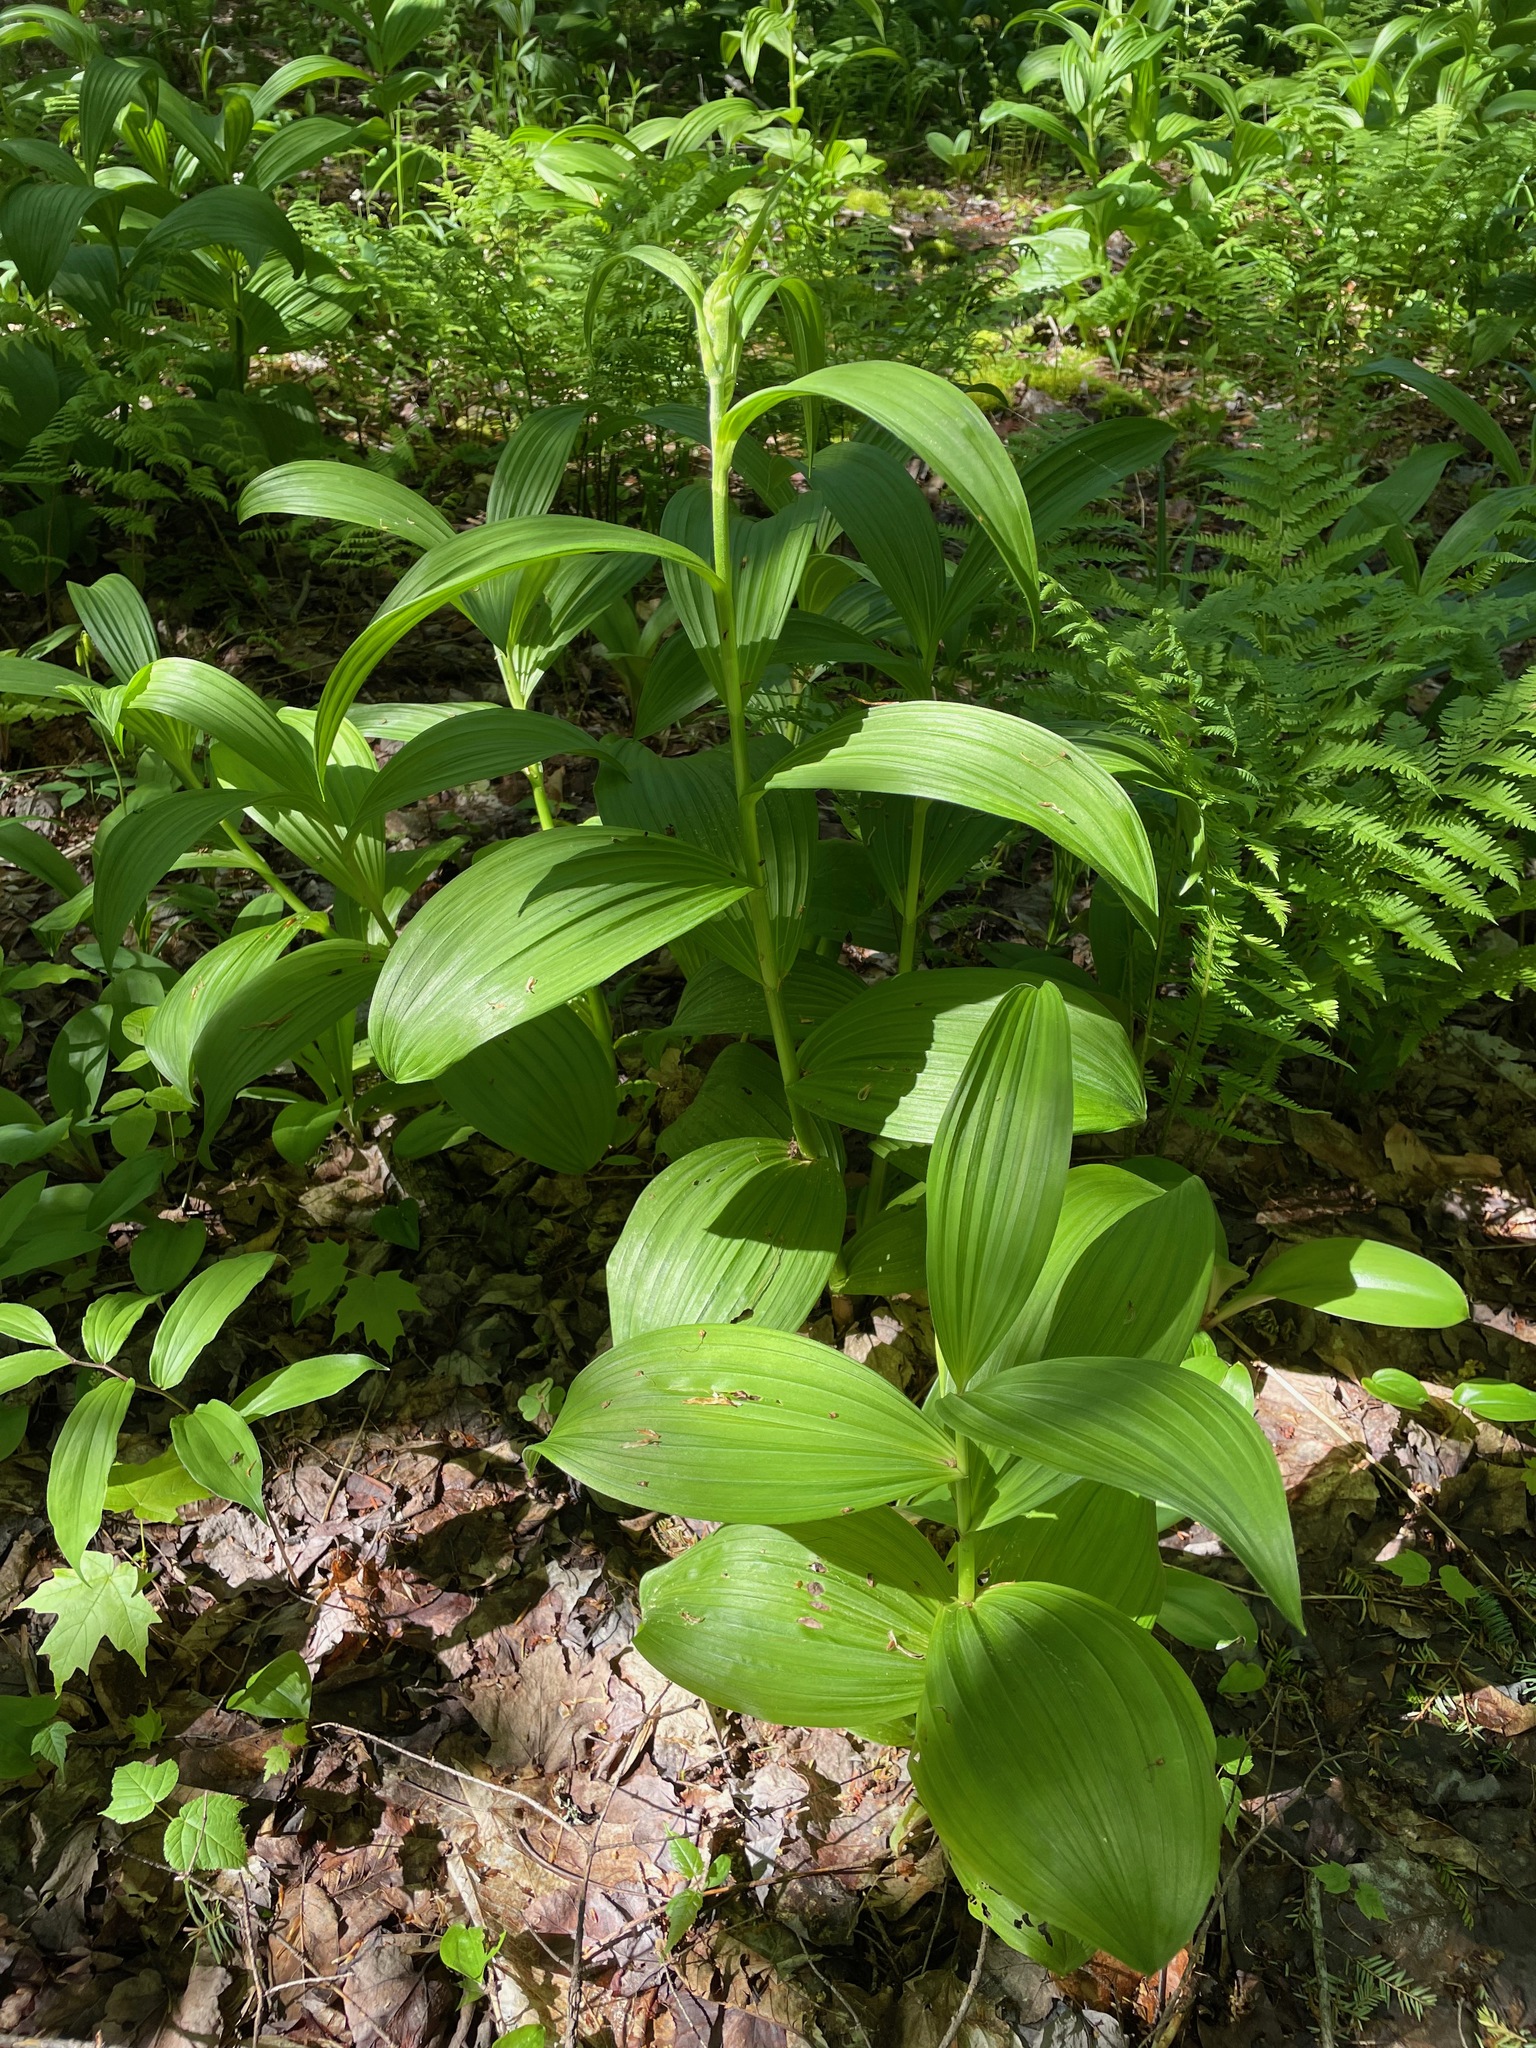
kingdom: Plantae
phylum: Tracheophyta
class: Liliopsida
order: Liliales
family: Melanthiaceae
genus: Veratrum
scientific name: Veratrum viride
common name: American false hellebore
